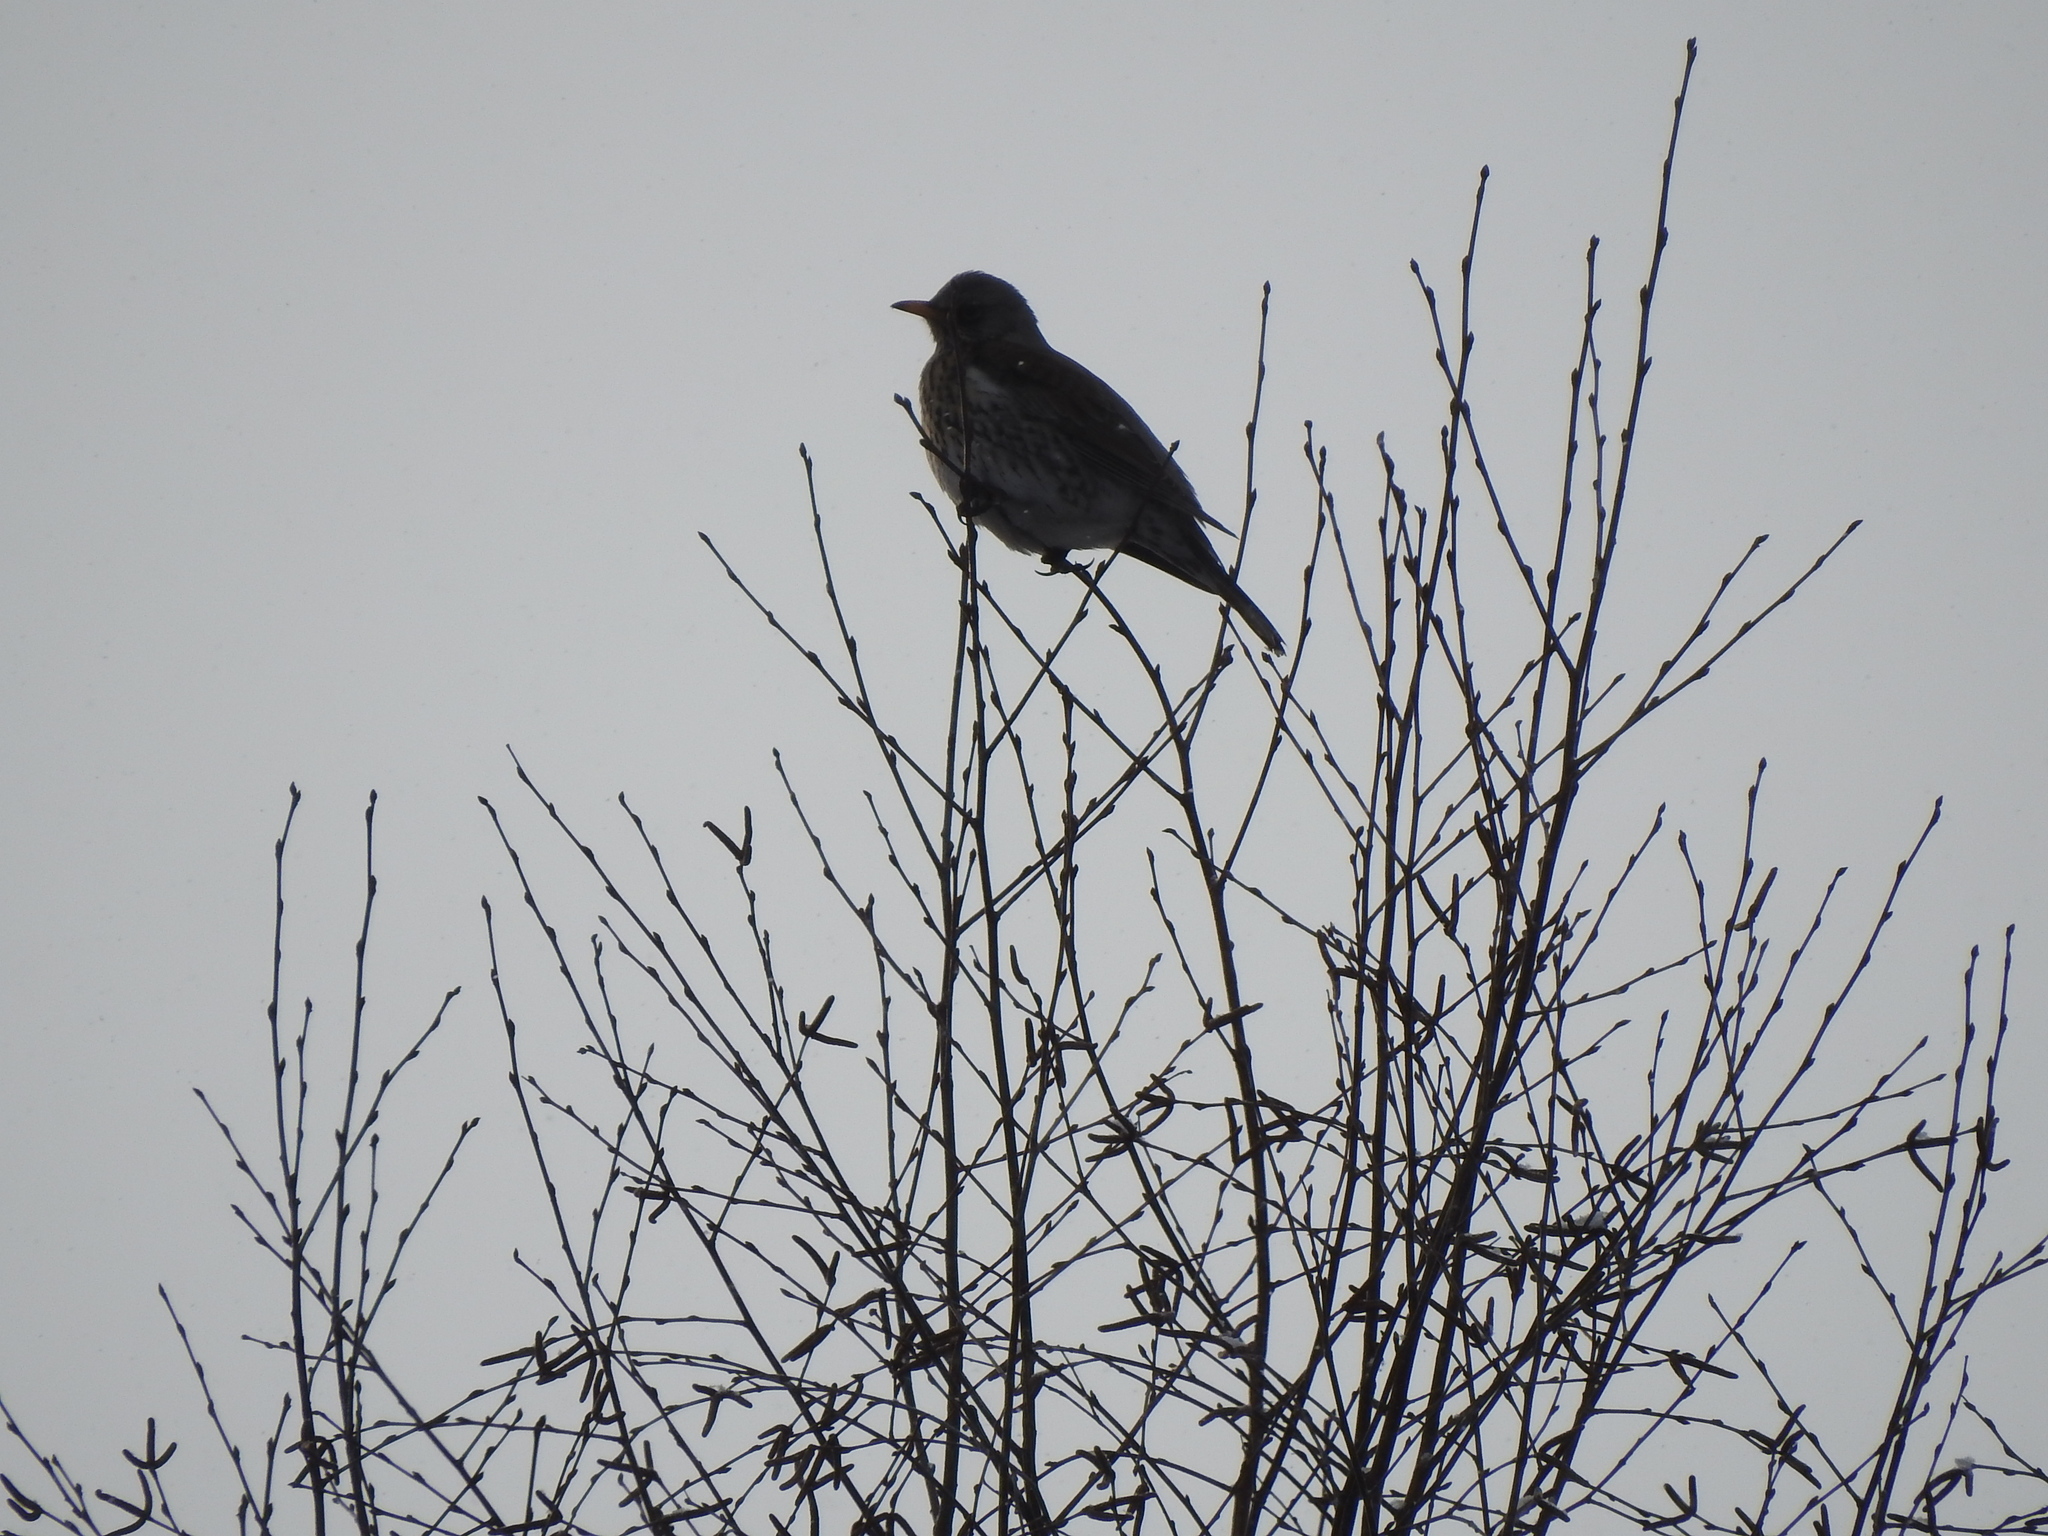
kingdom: Animalia
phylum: Chordata
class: Aves
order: Passeriformes
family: Turdidae
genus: Turdus
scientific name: Turdus pilaris
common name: Fieldfare
